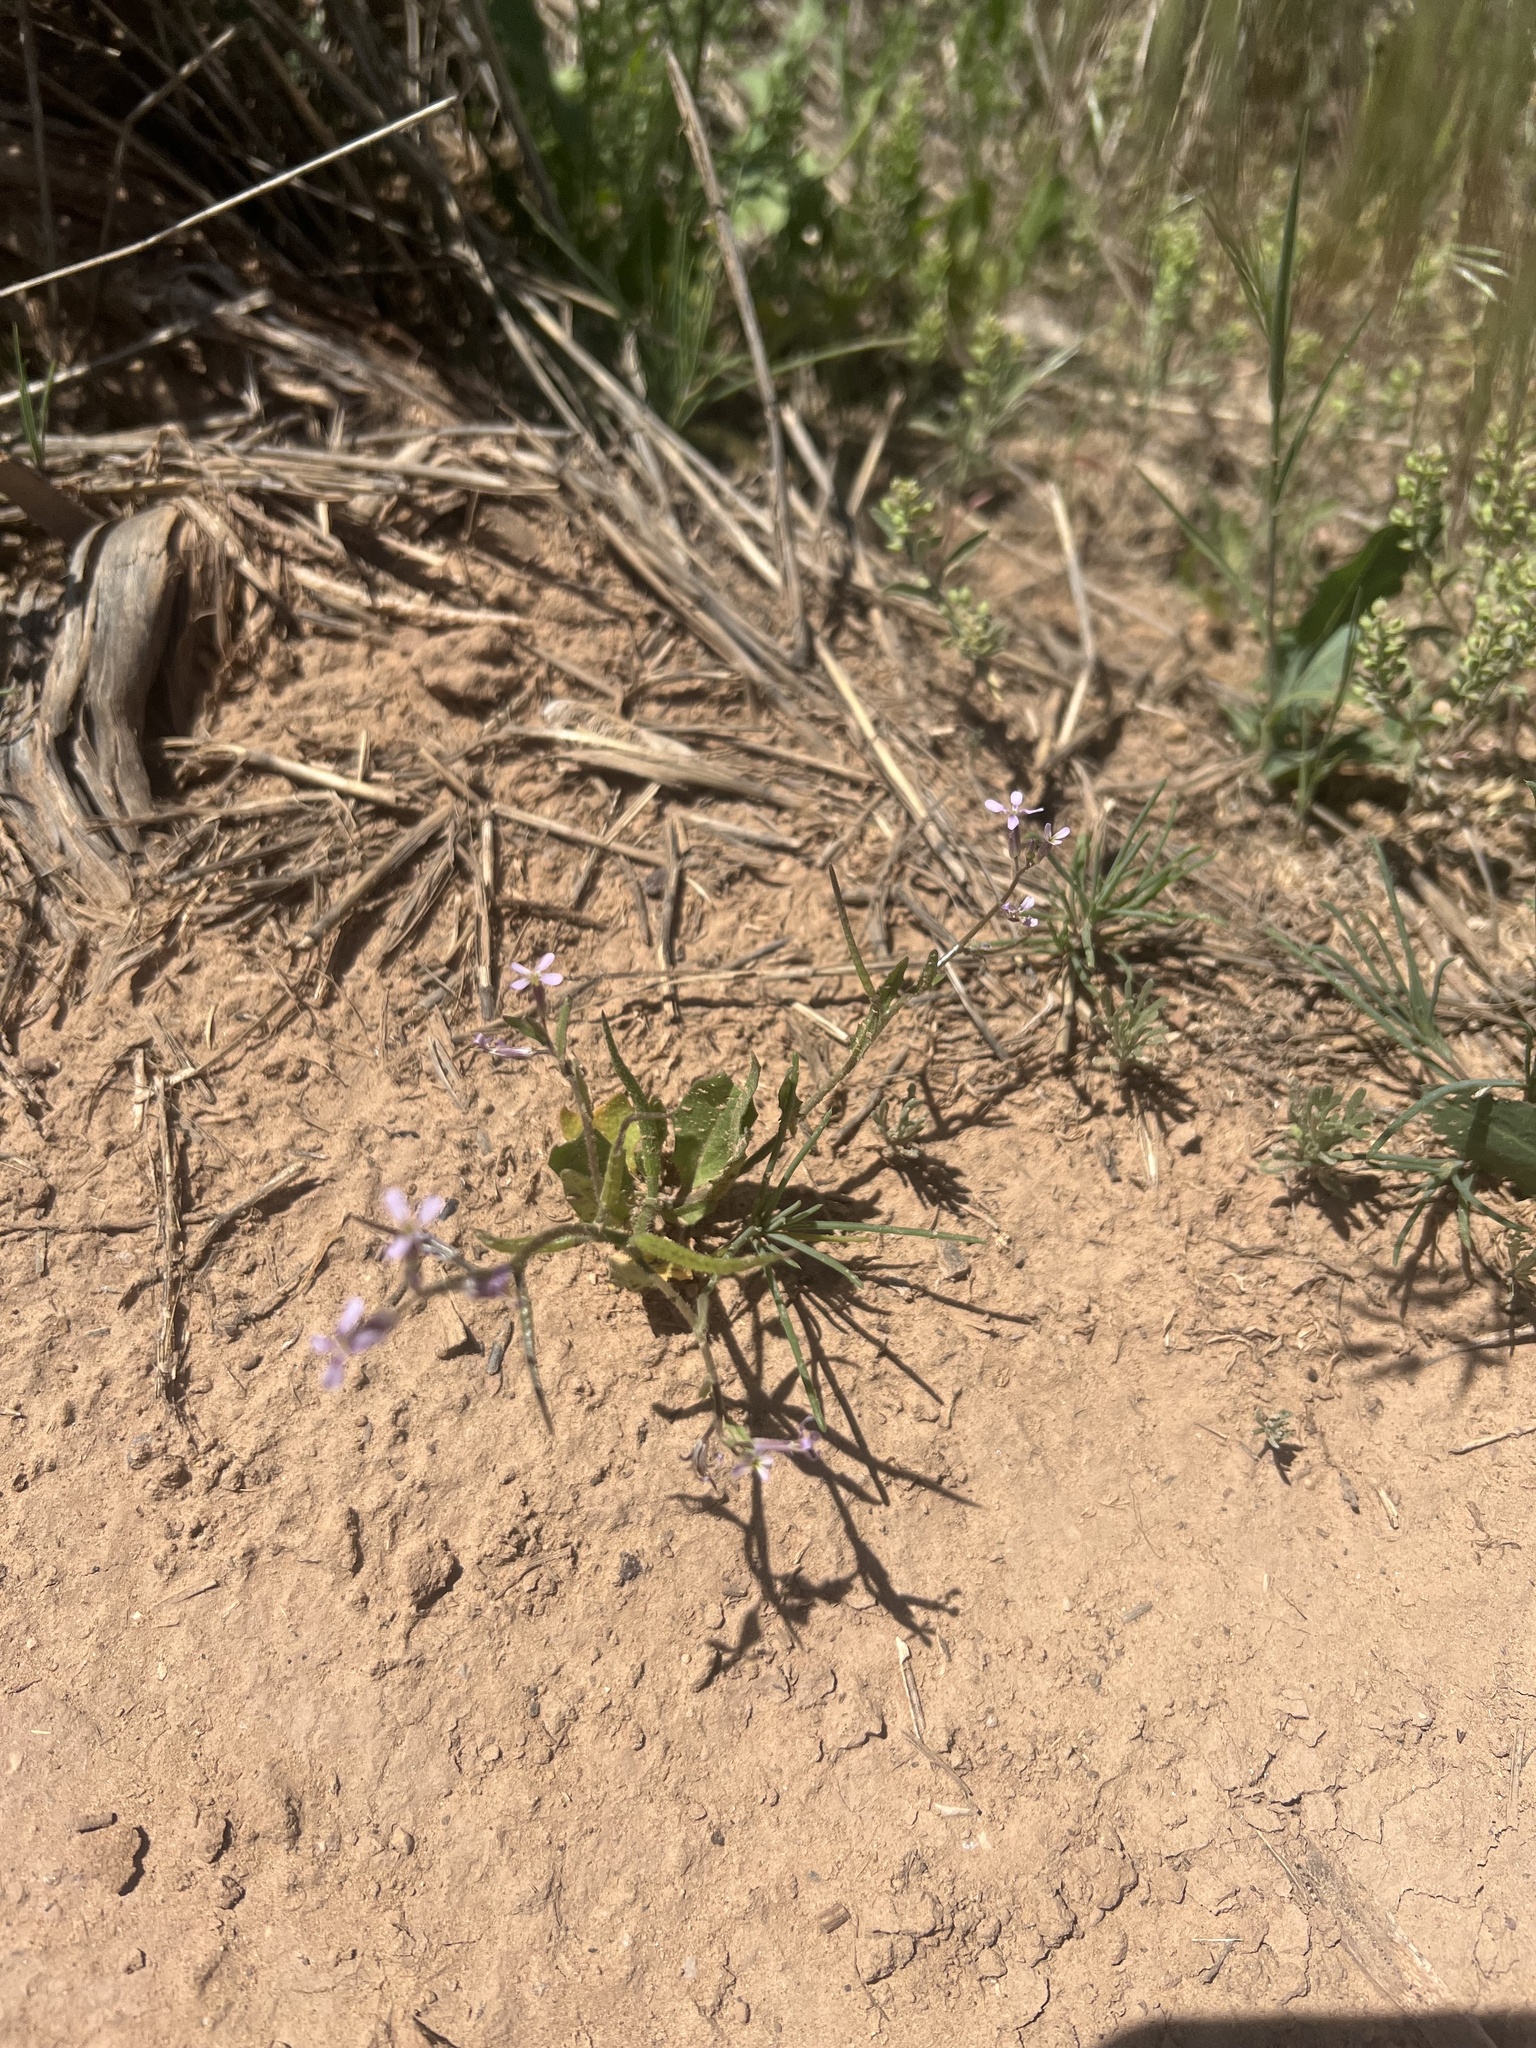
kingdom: Plantae
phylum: Tracheophyta
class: Magnoliopsida
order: Brassicales
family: Brassicaceae
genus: Chorispora
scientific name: Chorispora tenella
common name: Crossflower
